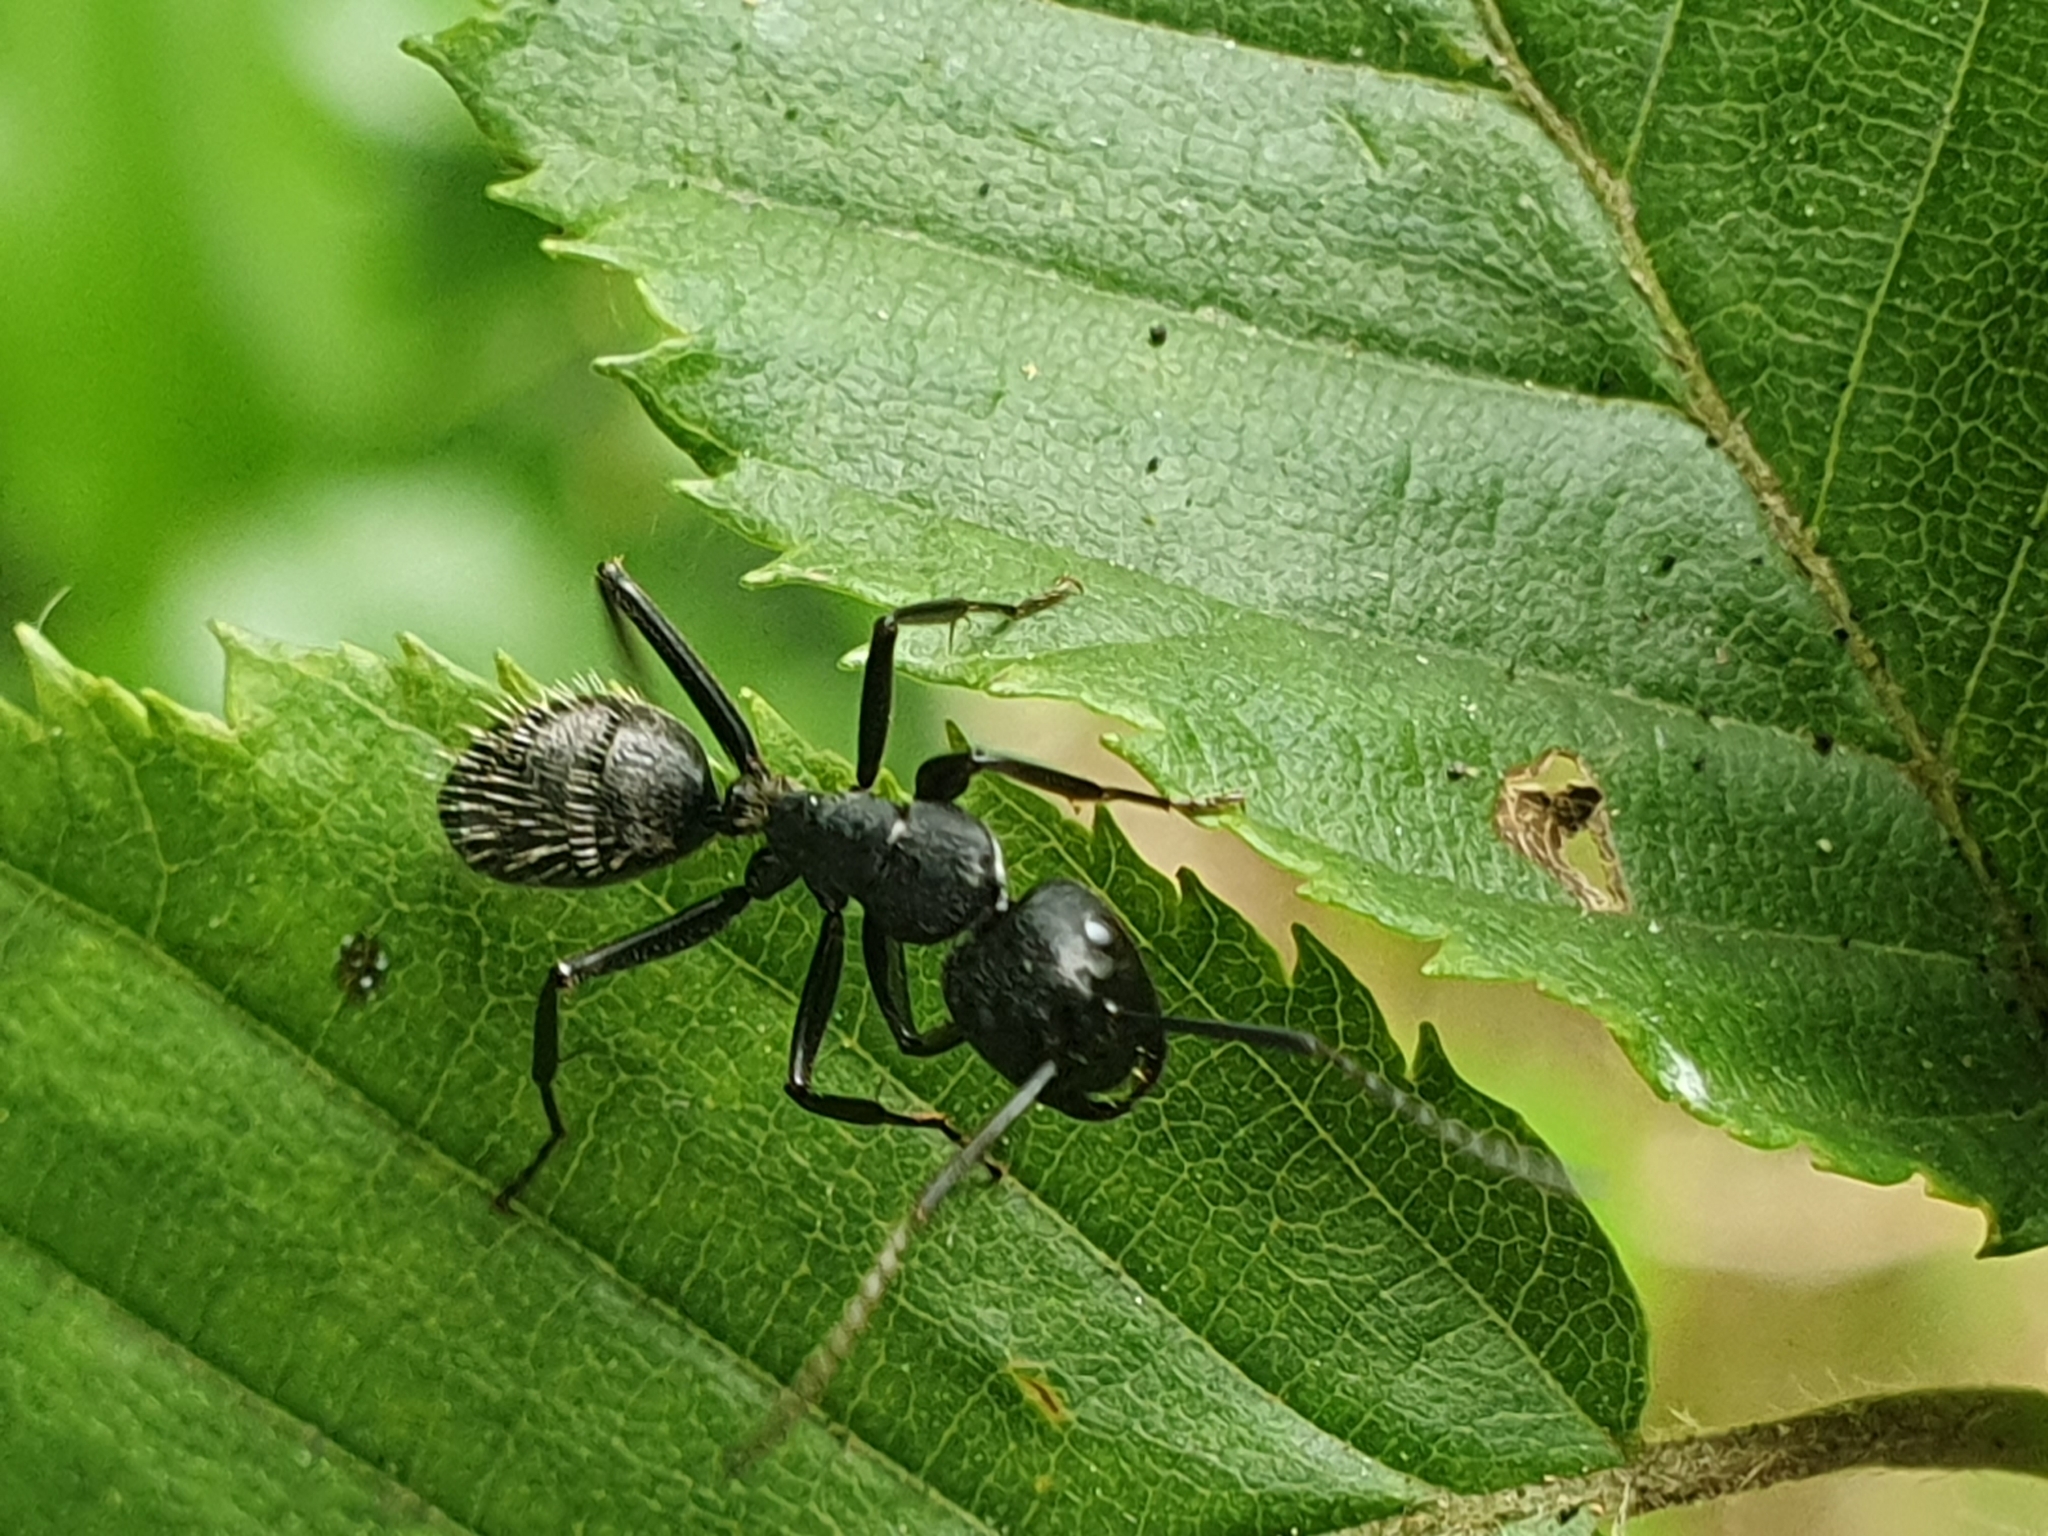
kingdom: Animalia
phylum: Arthropoda
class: Insecta
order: Hymenoptera
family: Formicidae
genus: Camponotus
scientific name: Camponotus vagus
